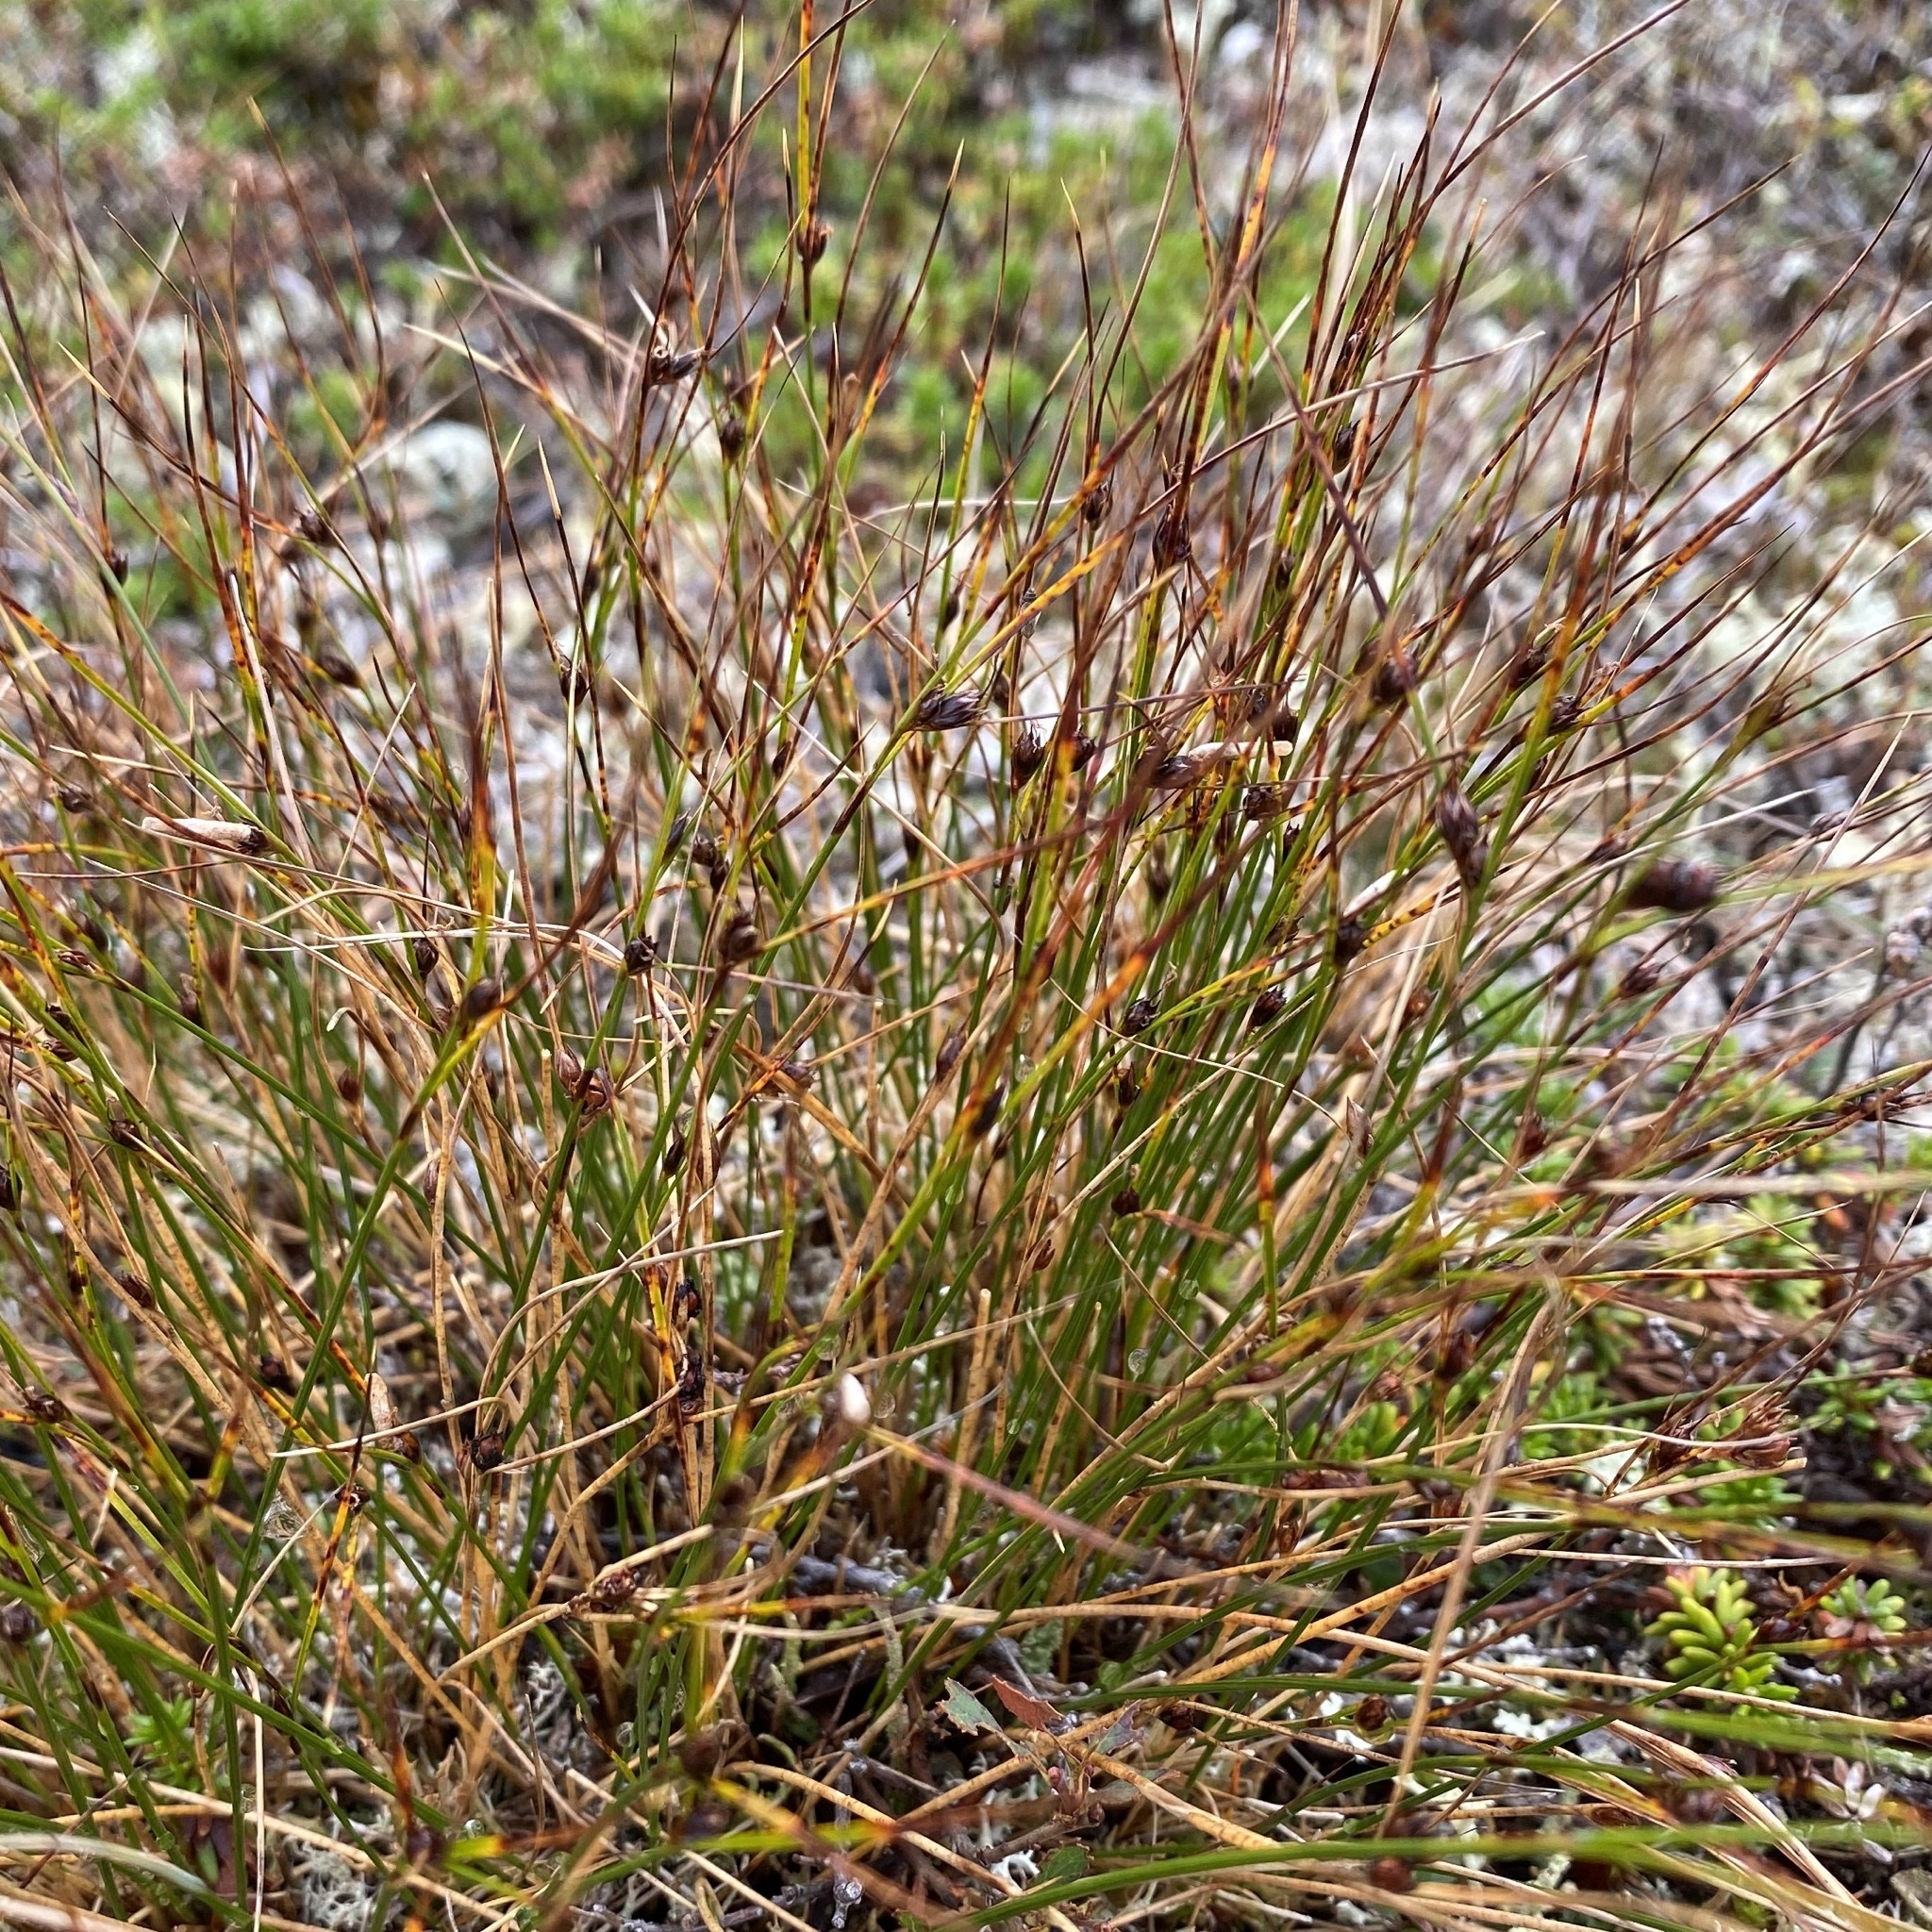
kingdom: Plantae
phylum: Tracheophyta
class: Liliopsida
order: Poales
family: Juncaceae
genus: Oreojuncus
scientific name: Oreojuncus trifidus
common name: Highland rush
